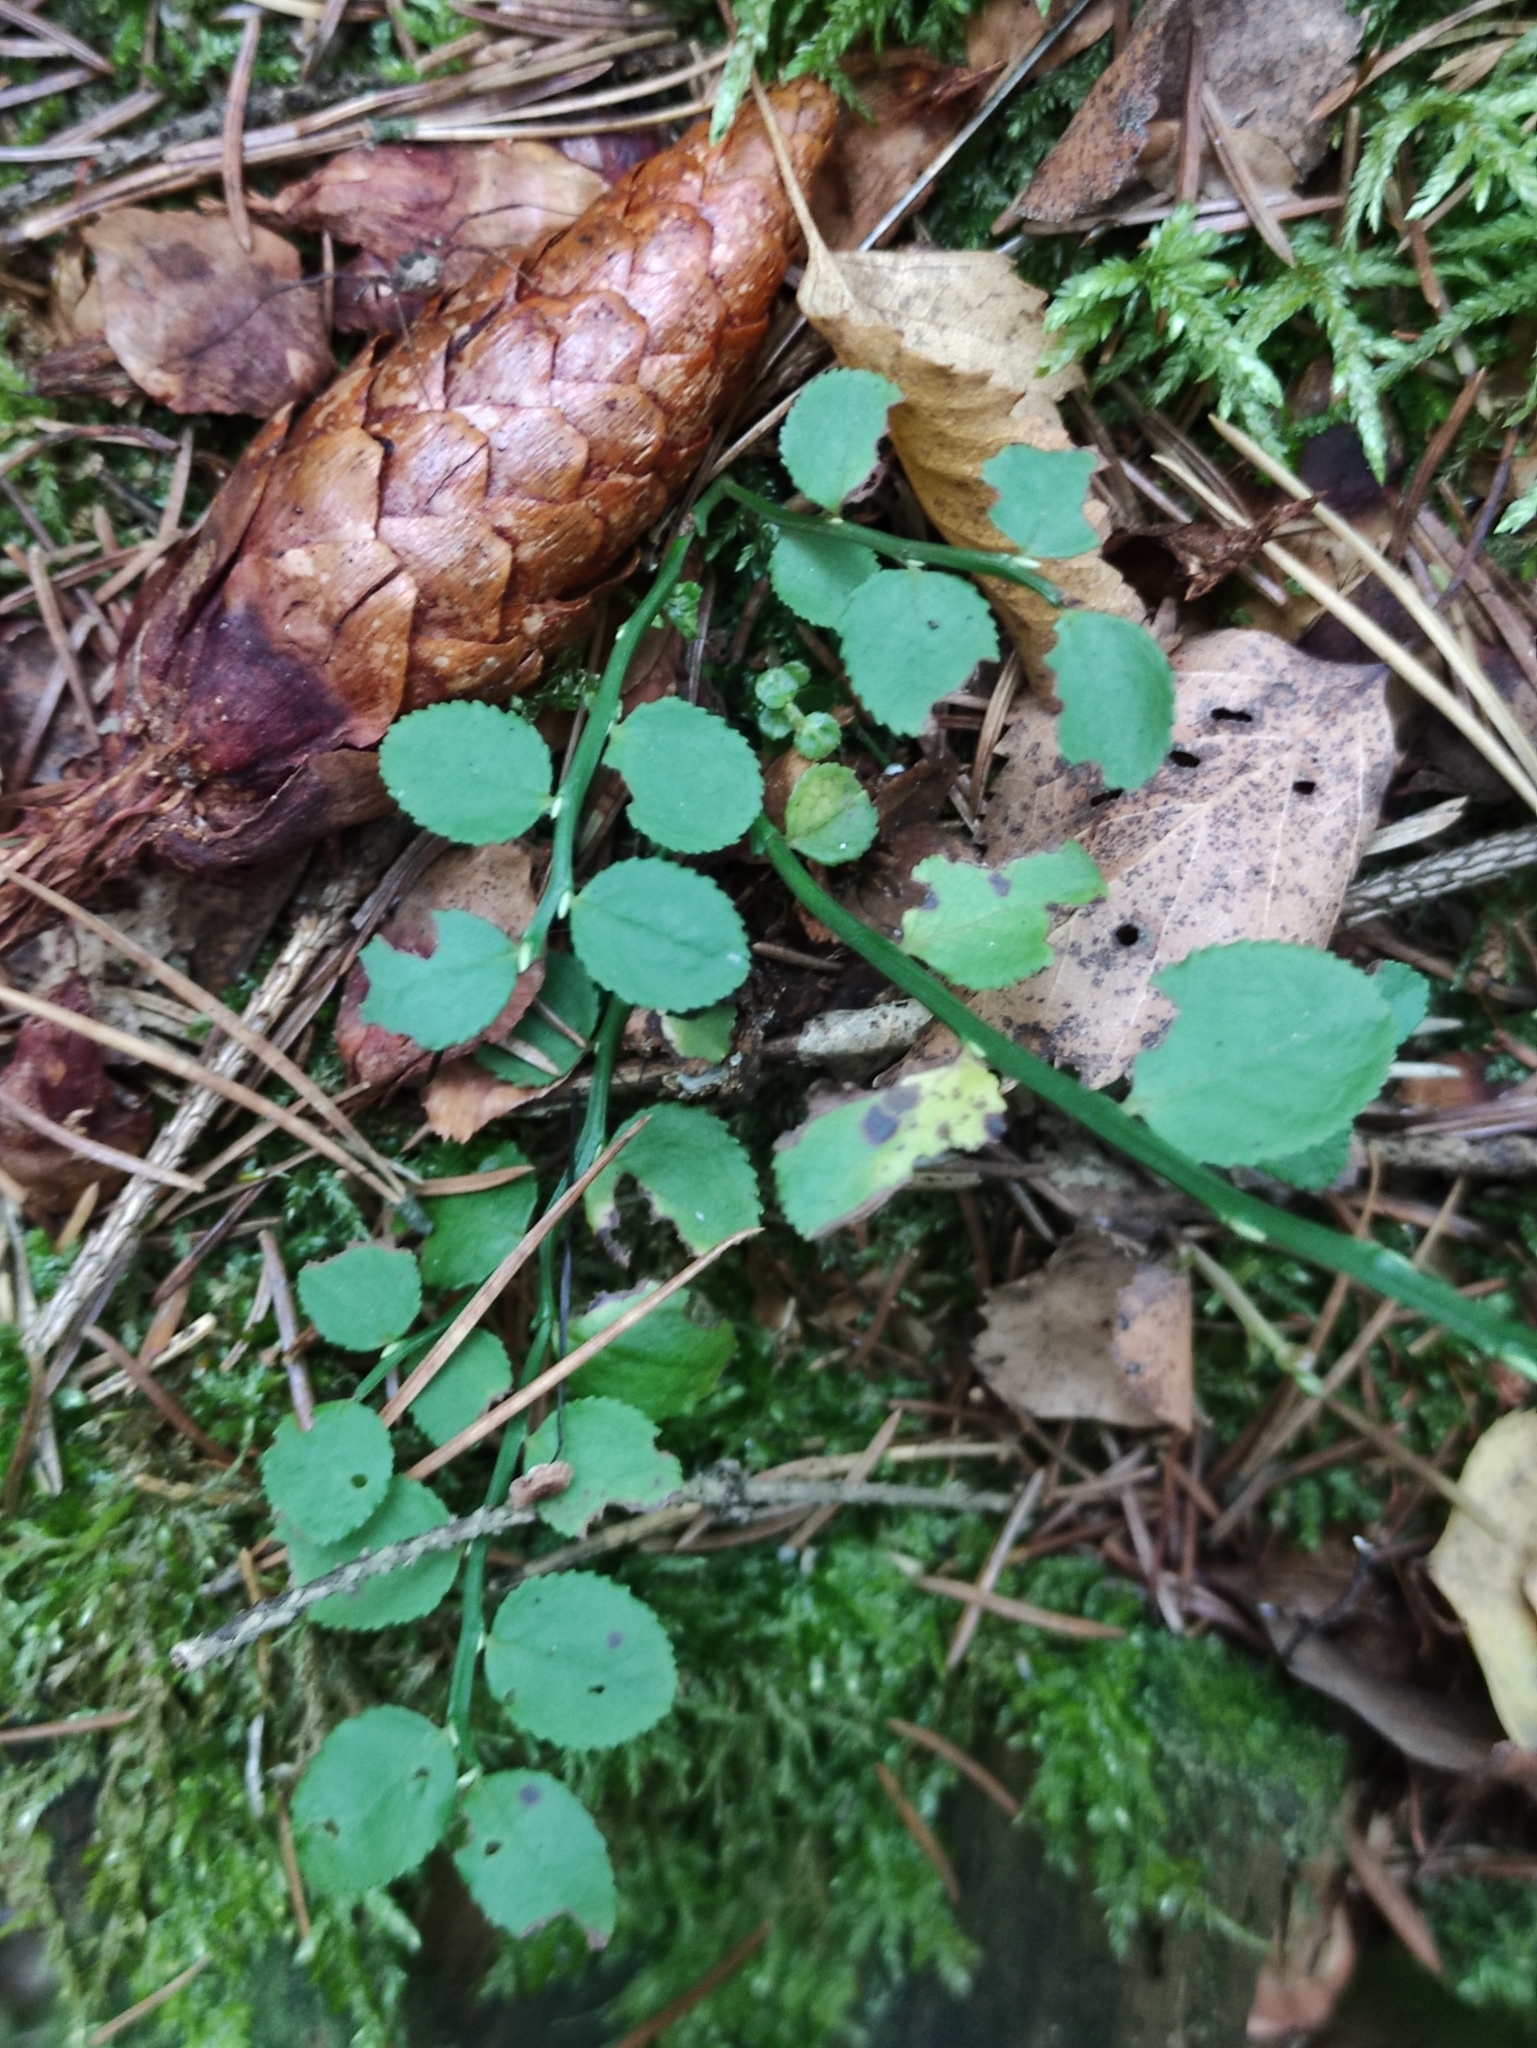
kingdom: Plantae
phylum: Tracheophyta
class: Magnoliopsida
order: Ericales
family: Ericaceae
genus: Vaccinium
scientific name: Vaccinium myrtillus
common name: Bilberry
